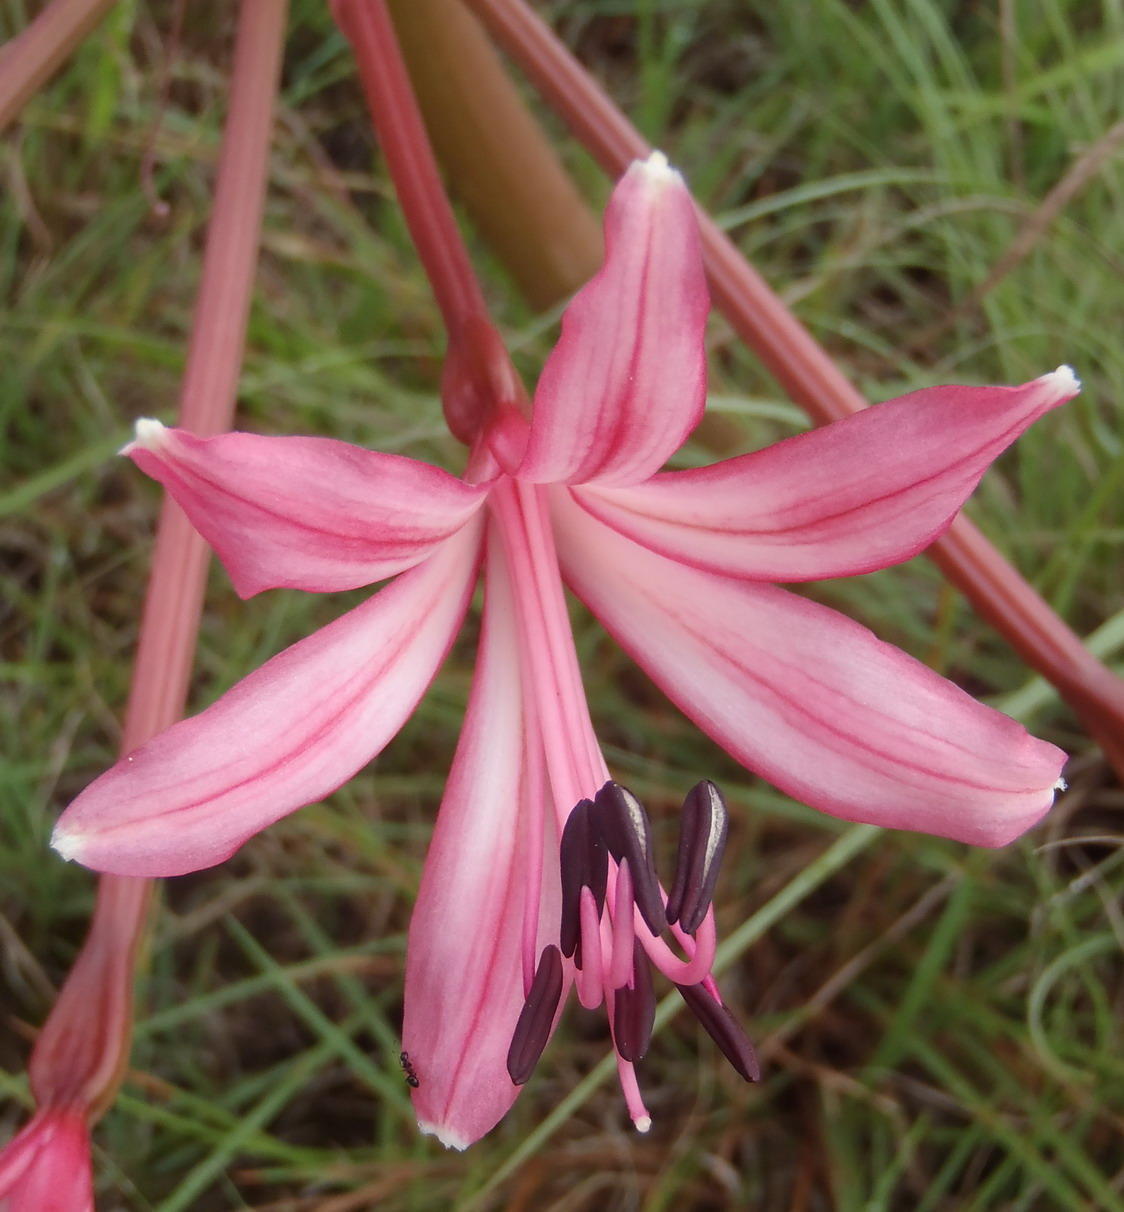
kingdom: Plantae
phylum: Tracheophyta
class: Liliopsida
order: Asparagales
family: Amaryllidaceae
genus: Brunsvigia
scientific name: Brunsvigia gregaria
